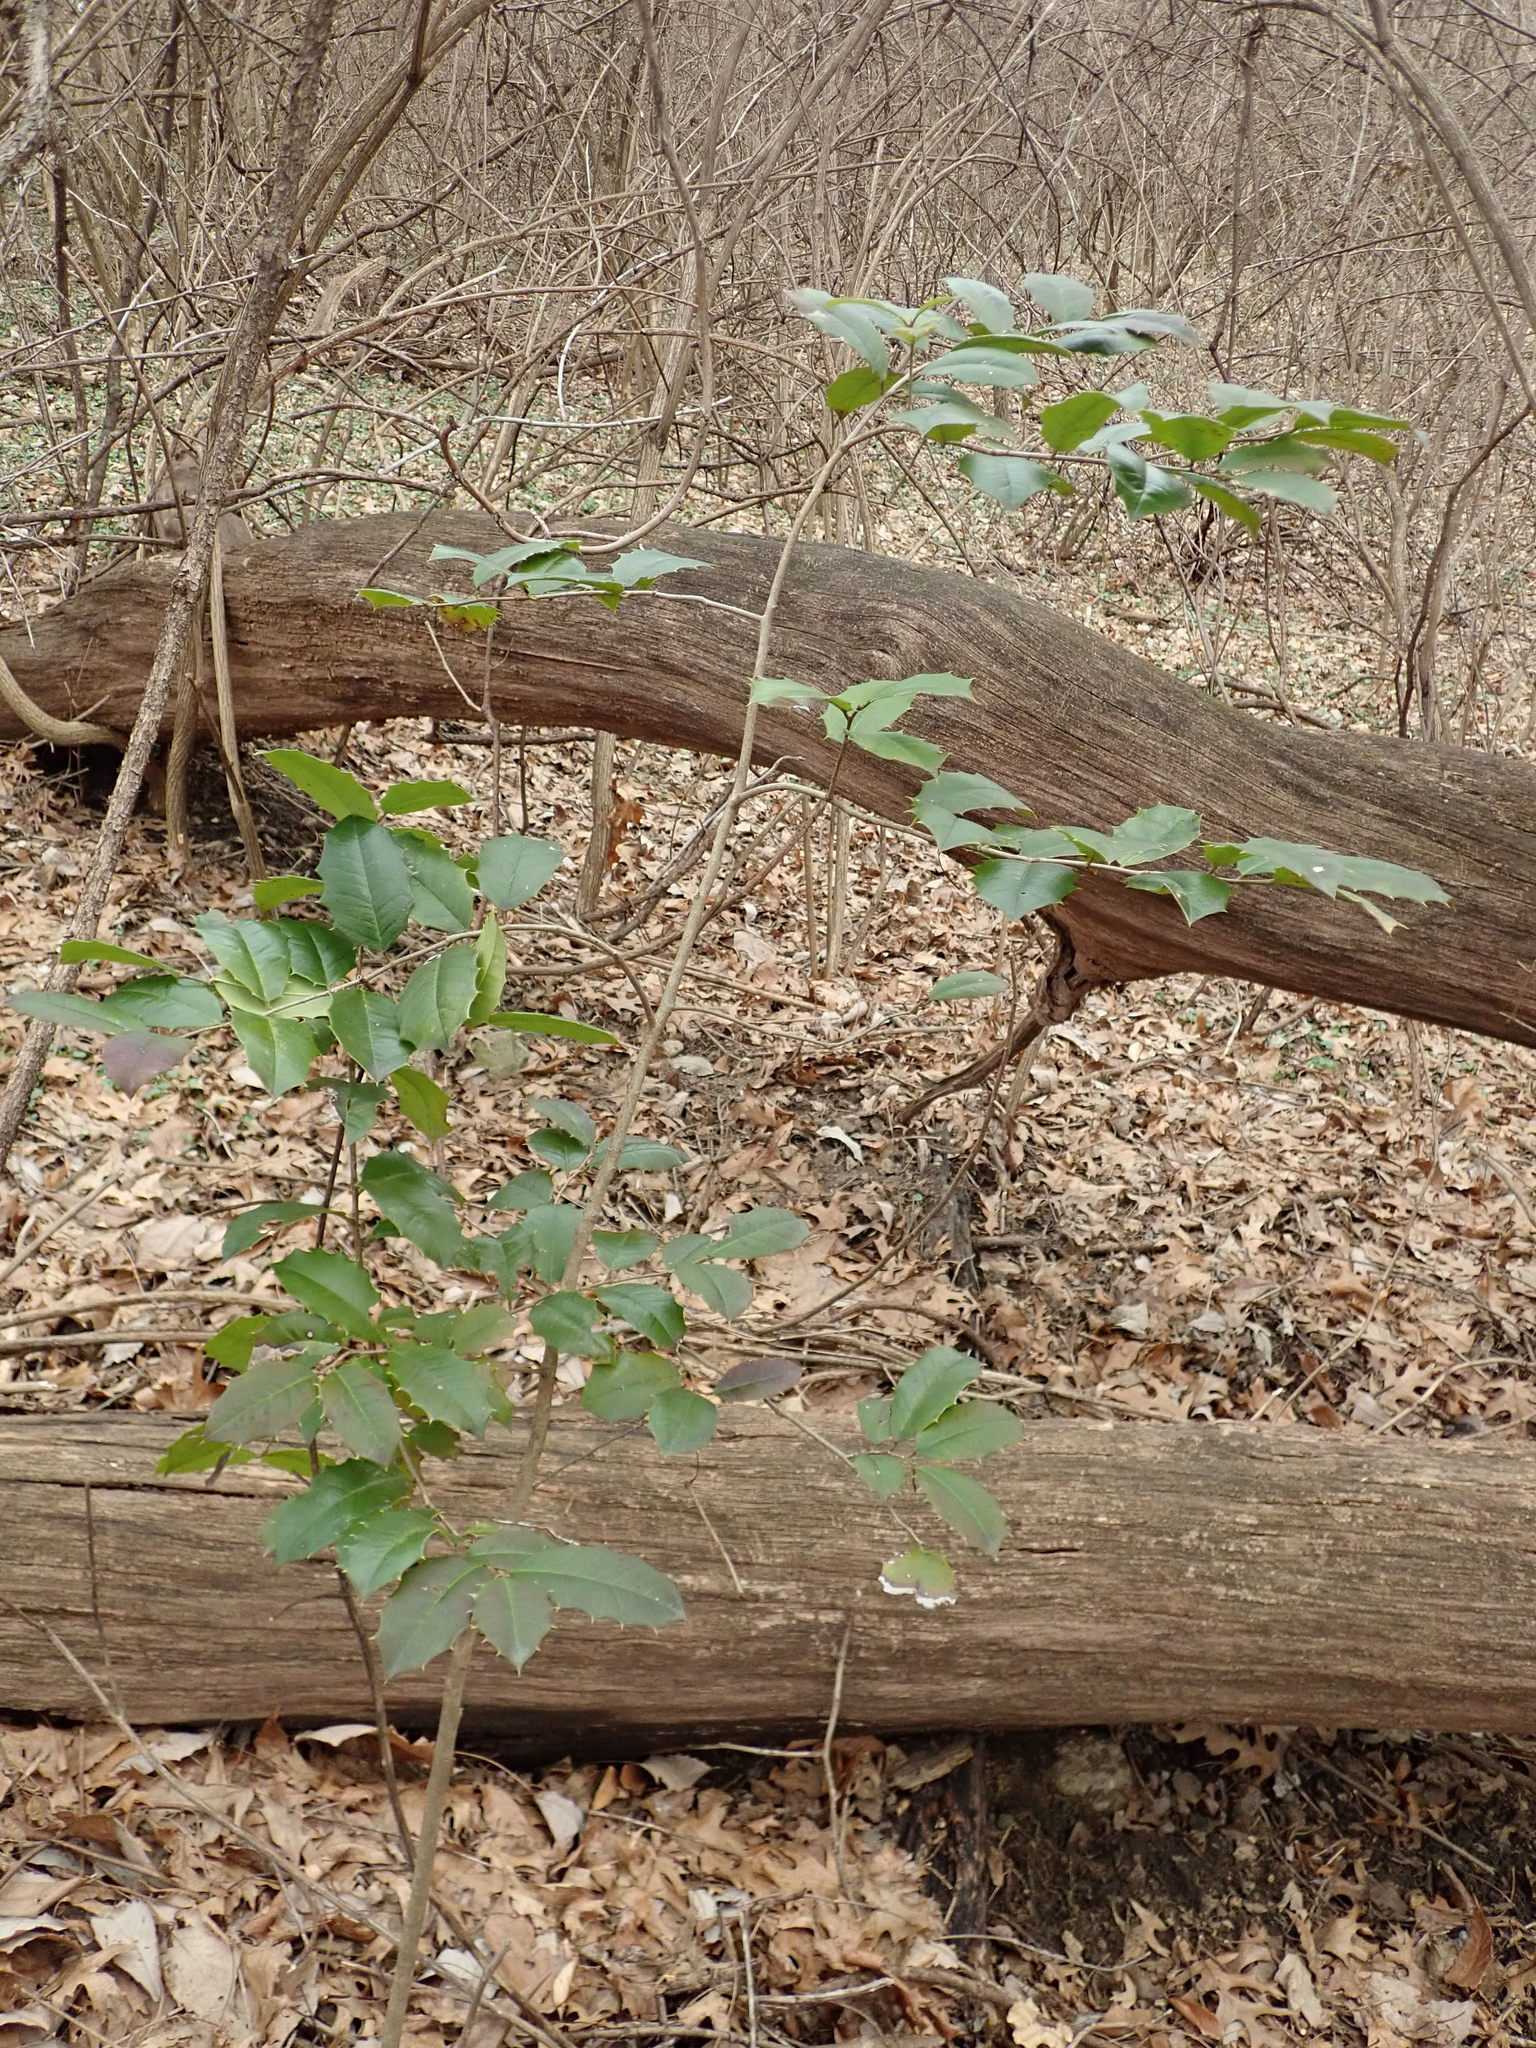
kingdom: Plantae
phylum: Tracheophyta
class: Magnoliopsida
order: Aquifoliales
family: Aquifoliaceae
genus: Ilex
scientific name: Ilex opaca
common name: American holly
